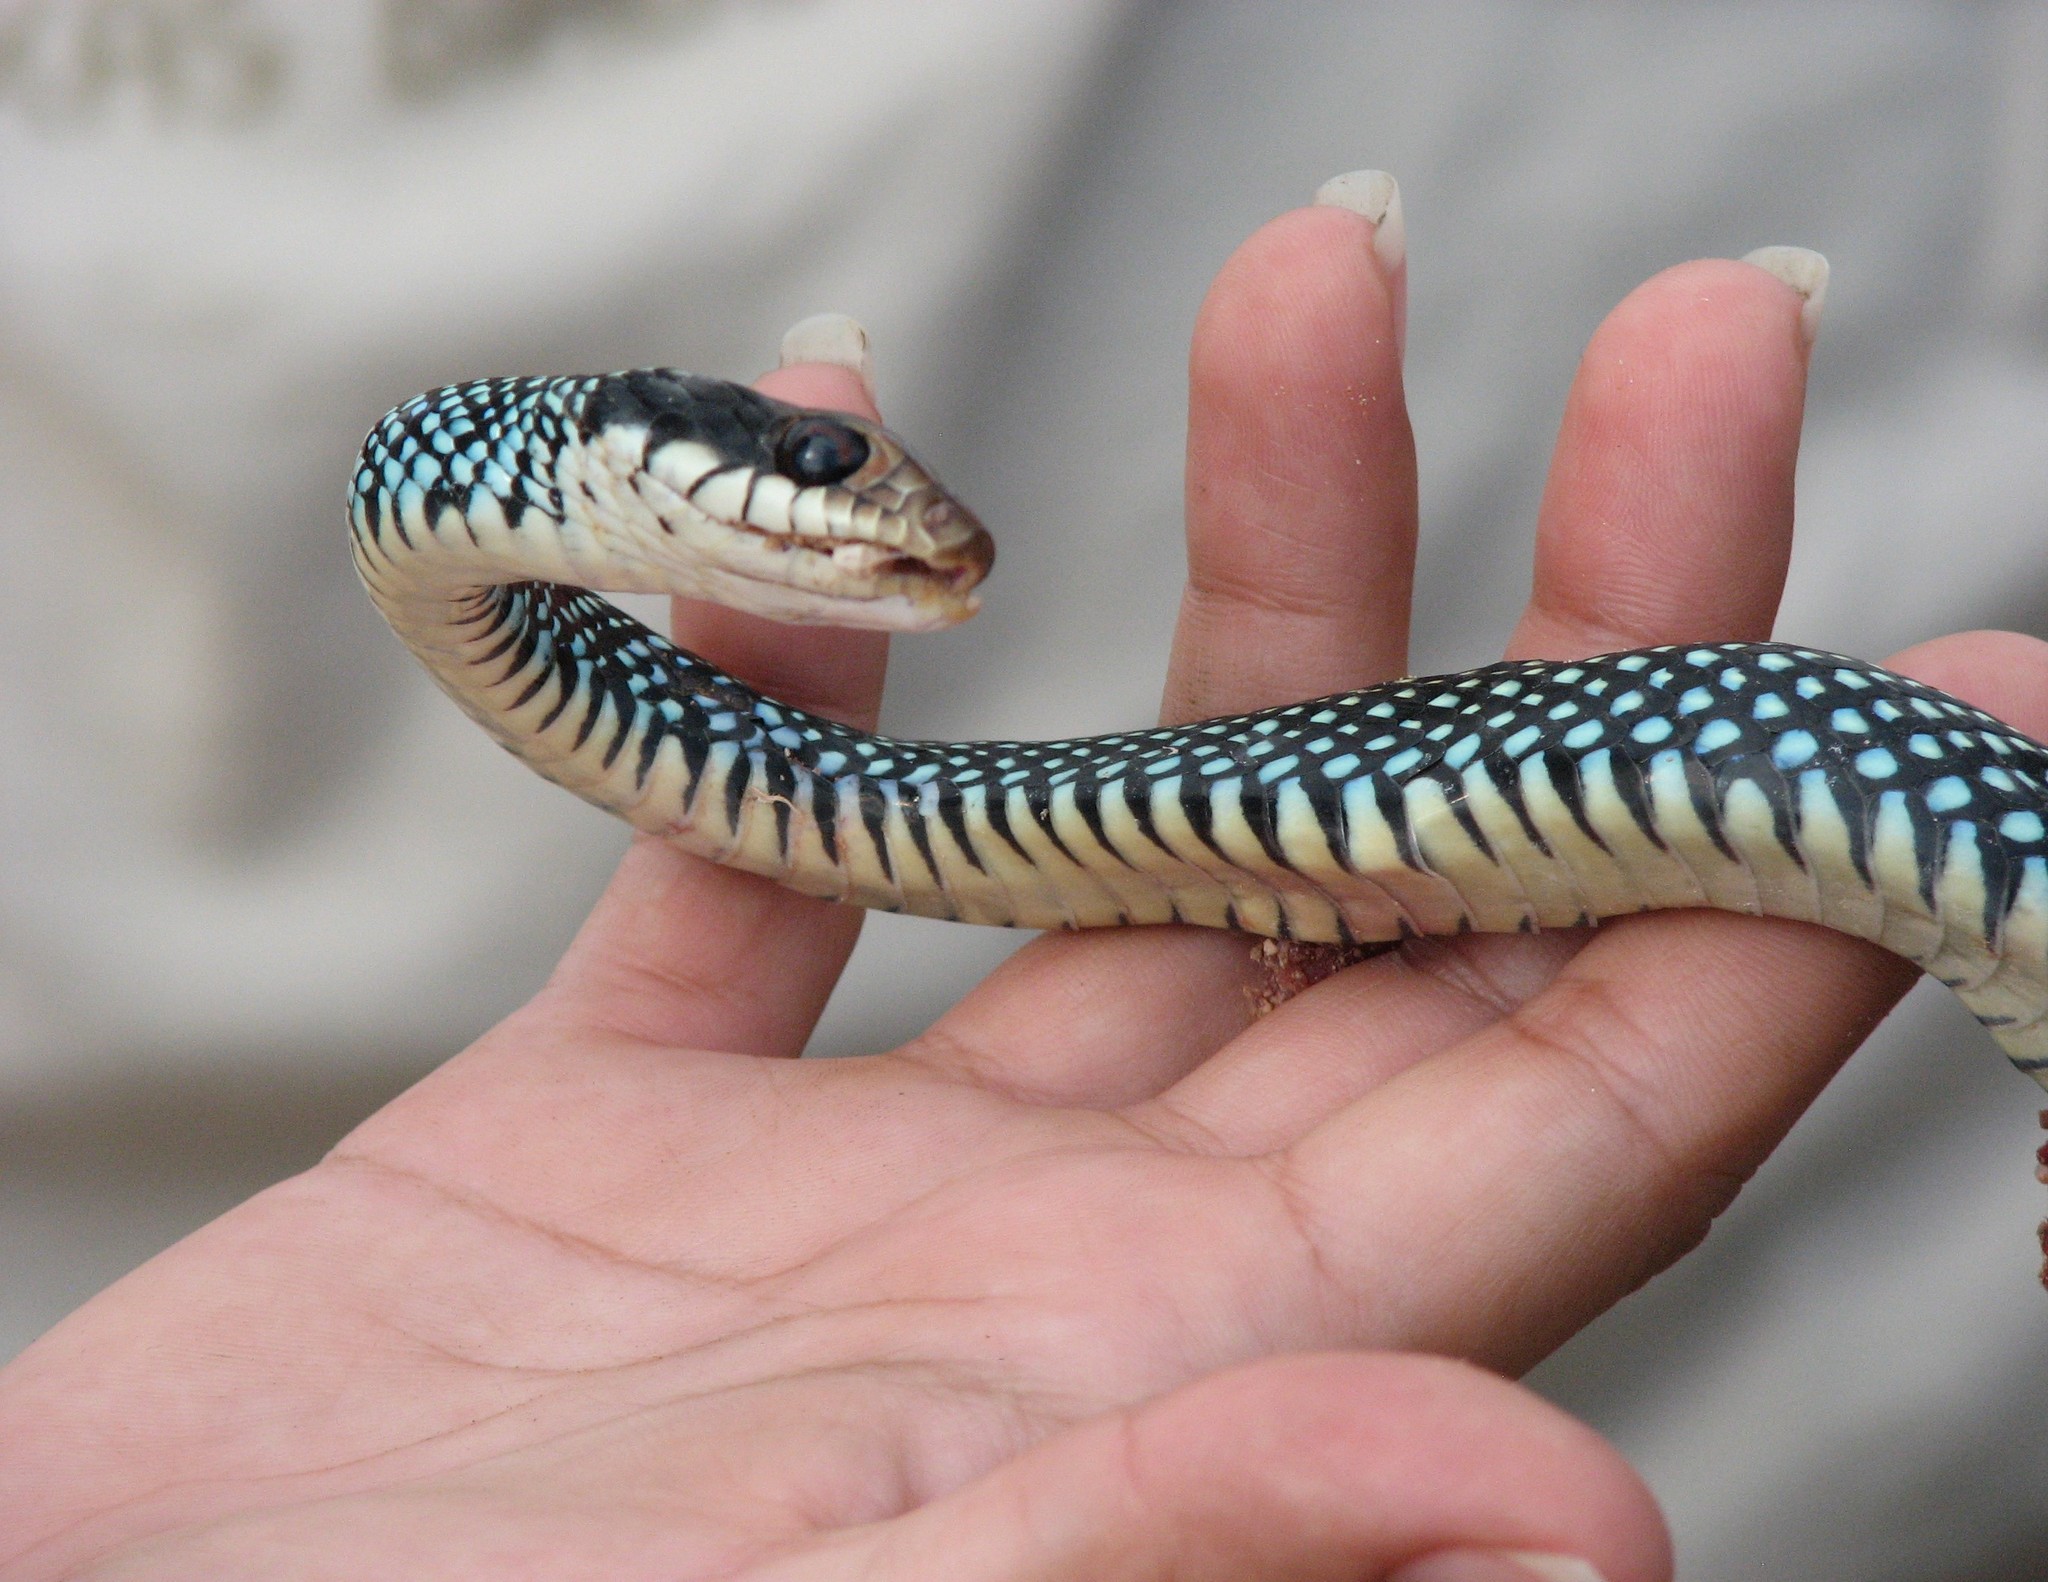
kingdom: Animalia
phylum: Chordata
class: Squamata
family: Colubridae
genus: Drymobius
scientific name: Drymobius margaritiferus
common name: Central american speckled racer
